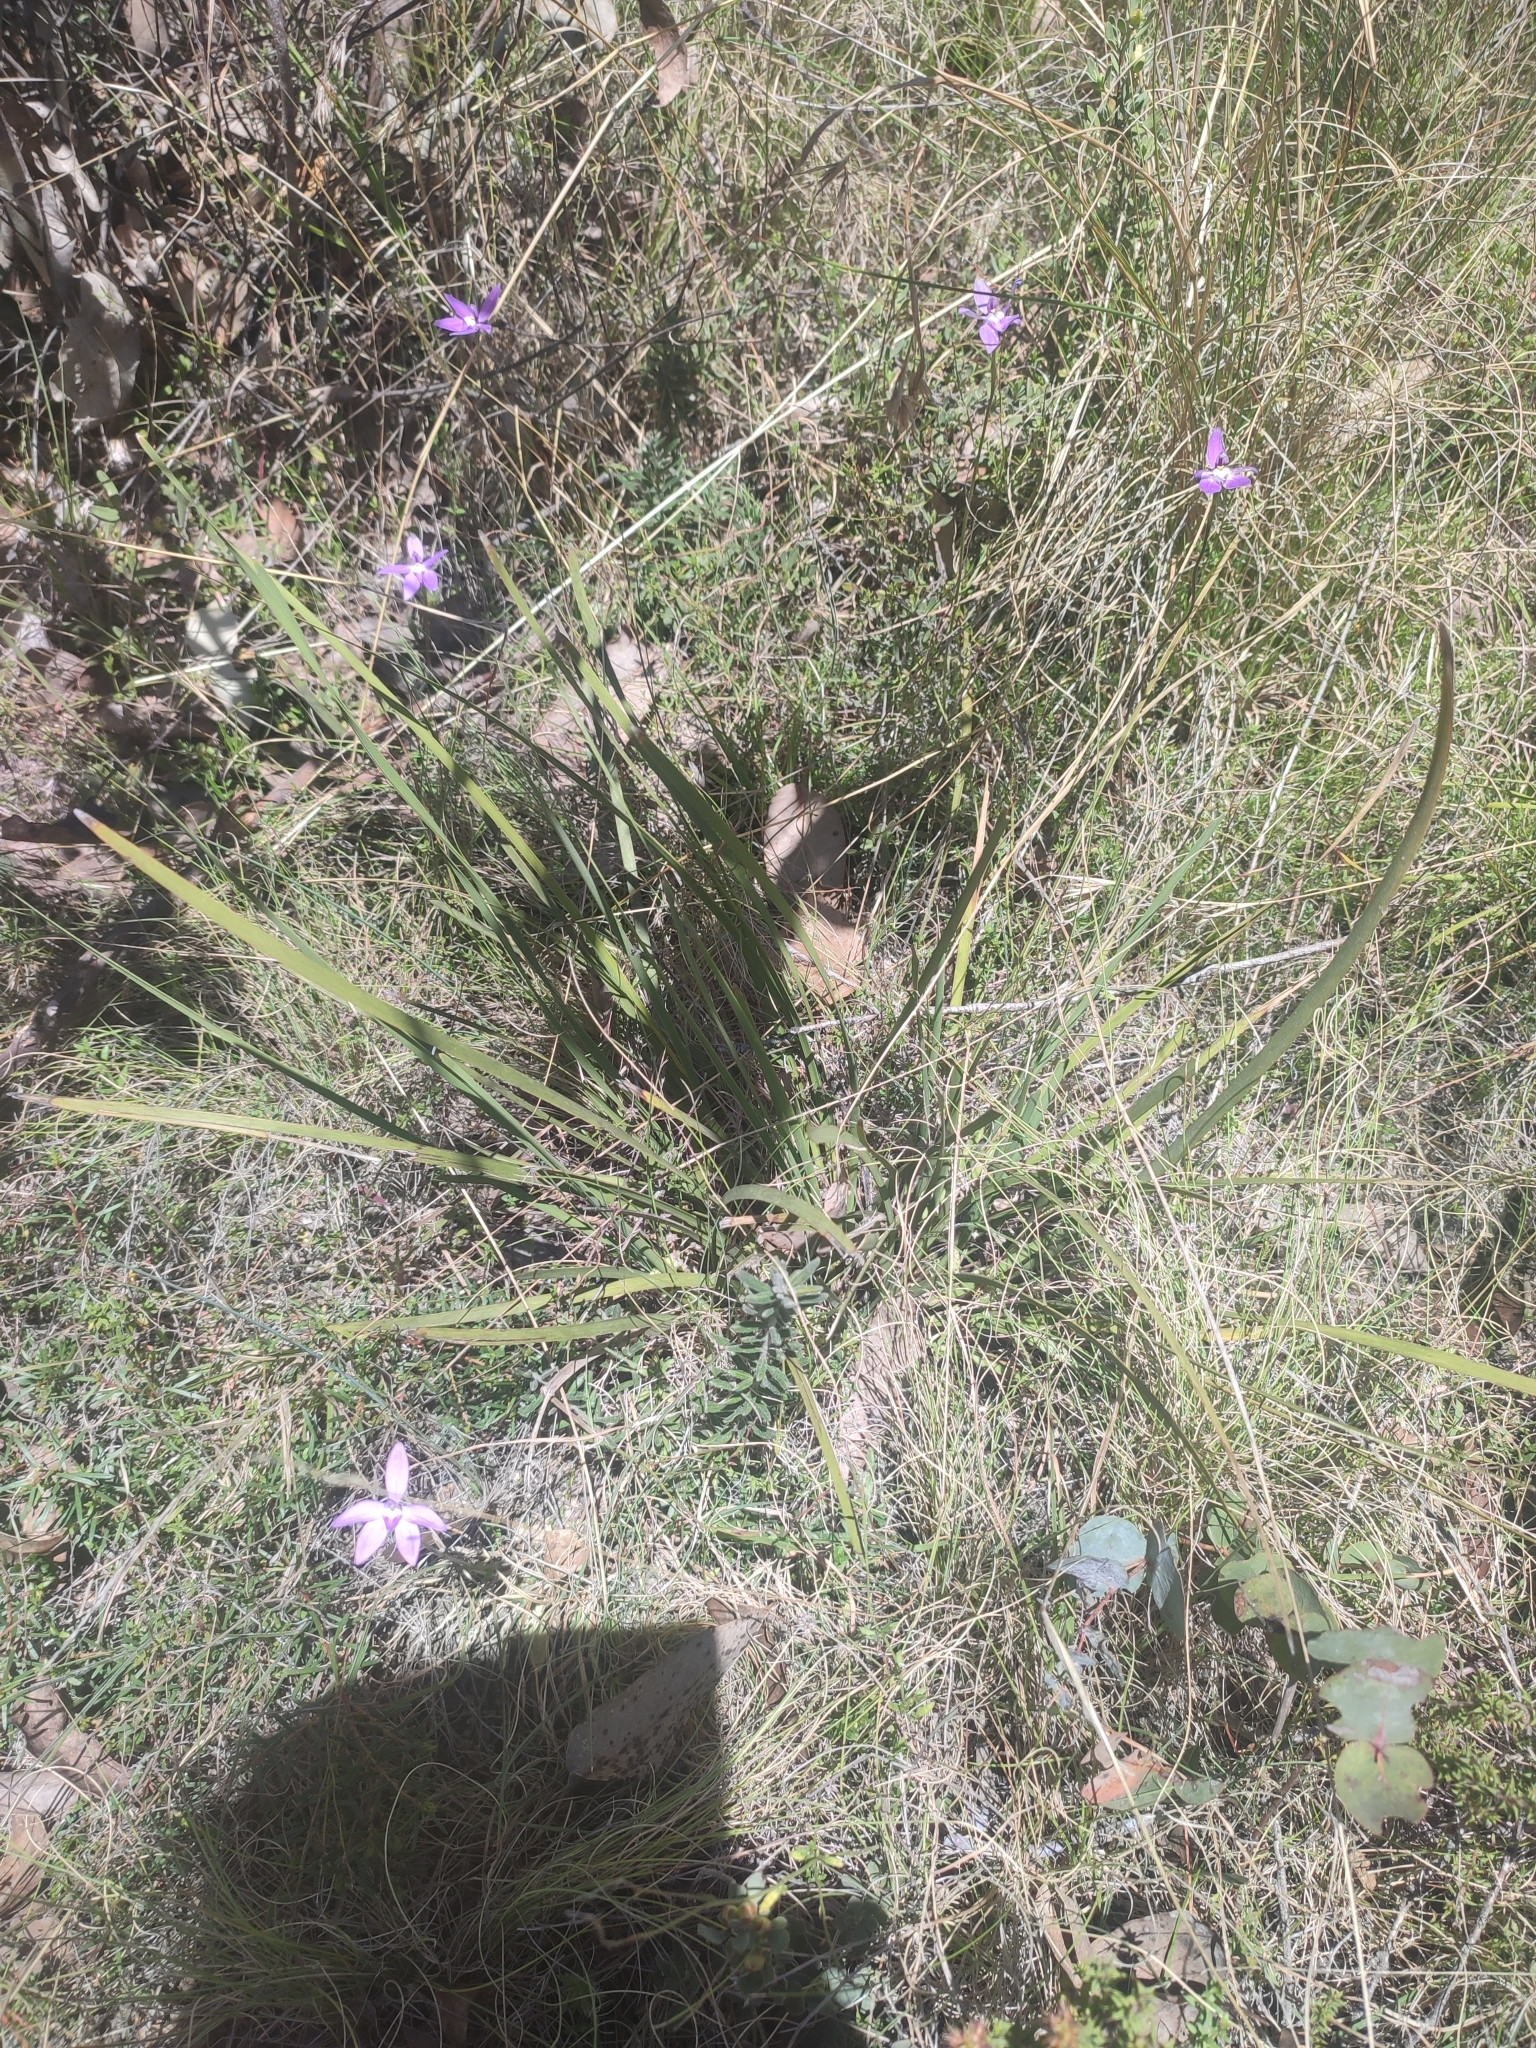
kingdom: Plantae
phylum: Tracheophyta
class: Liliopsida
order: Asparagales
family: Orchidaceae
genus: Caladenia
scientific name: Caladenia major
